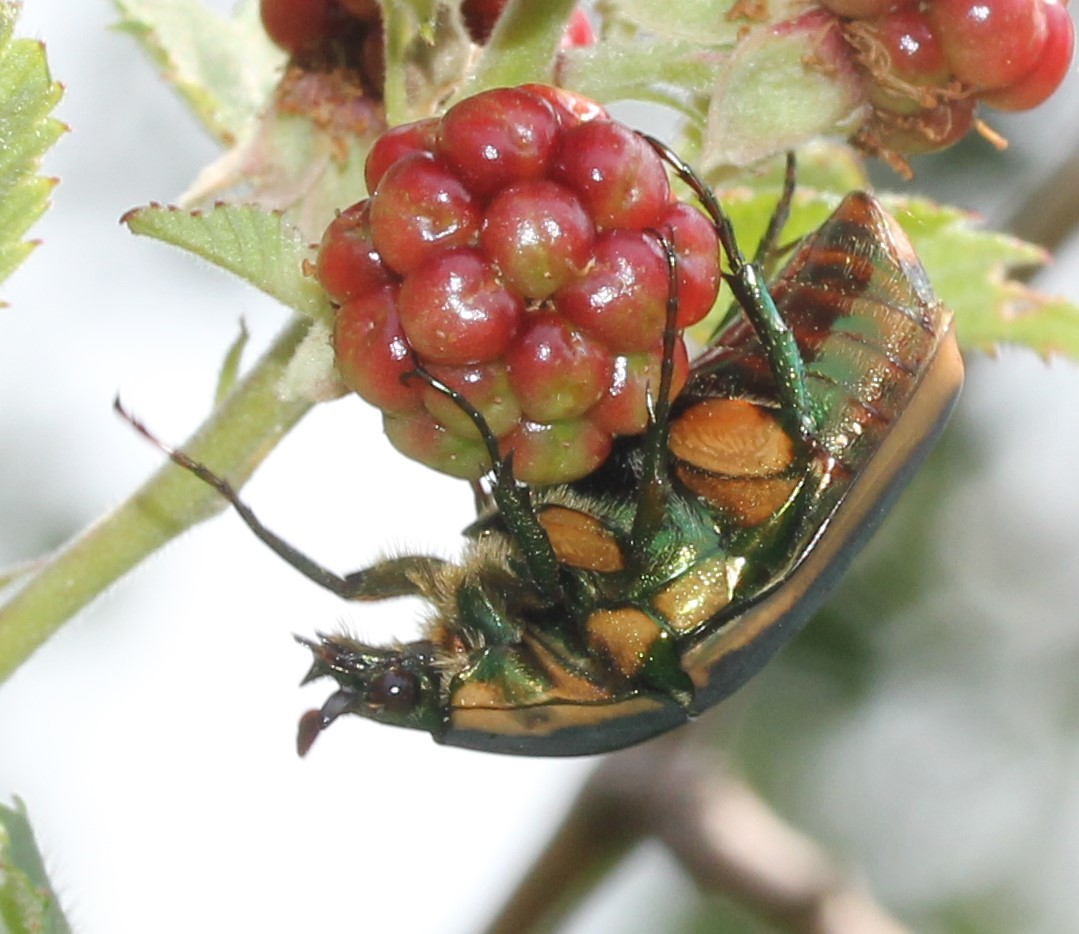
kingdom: Animalia
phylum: Arthropoda
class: Insecta
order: Coleoptera
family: Scarabaeidae
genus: Cotinis
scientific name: Cotinis nitida
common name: Common green june beetle
